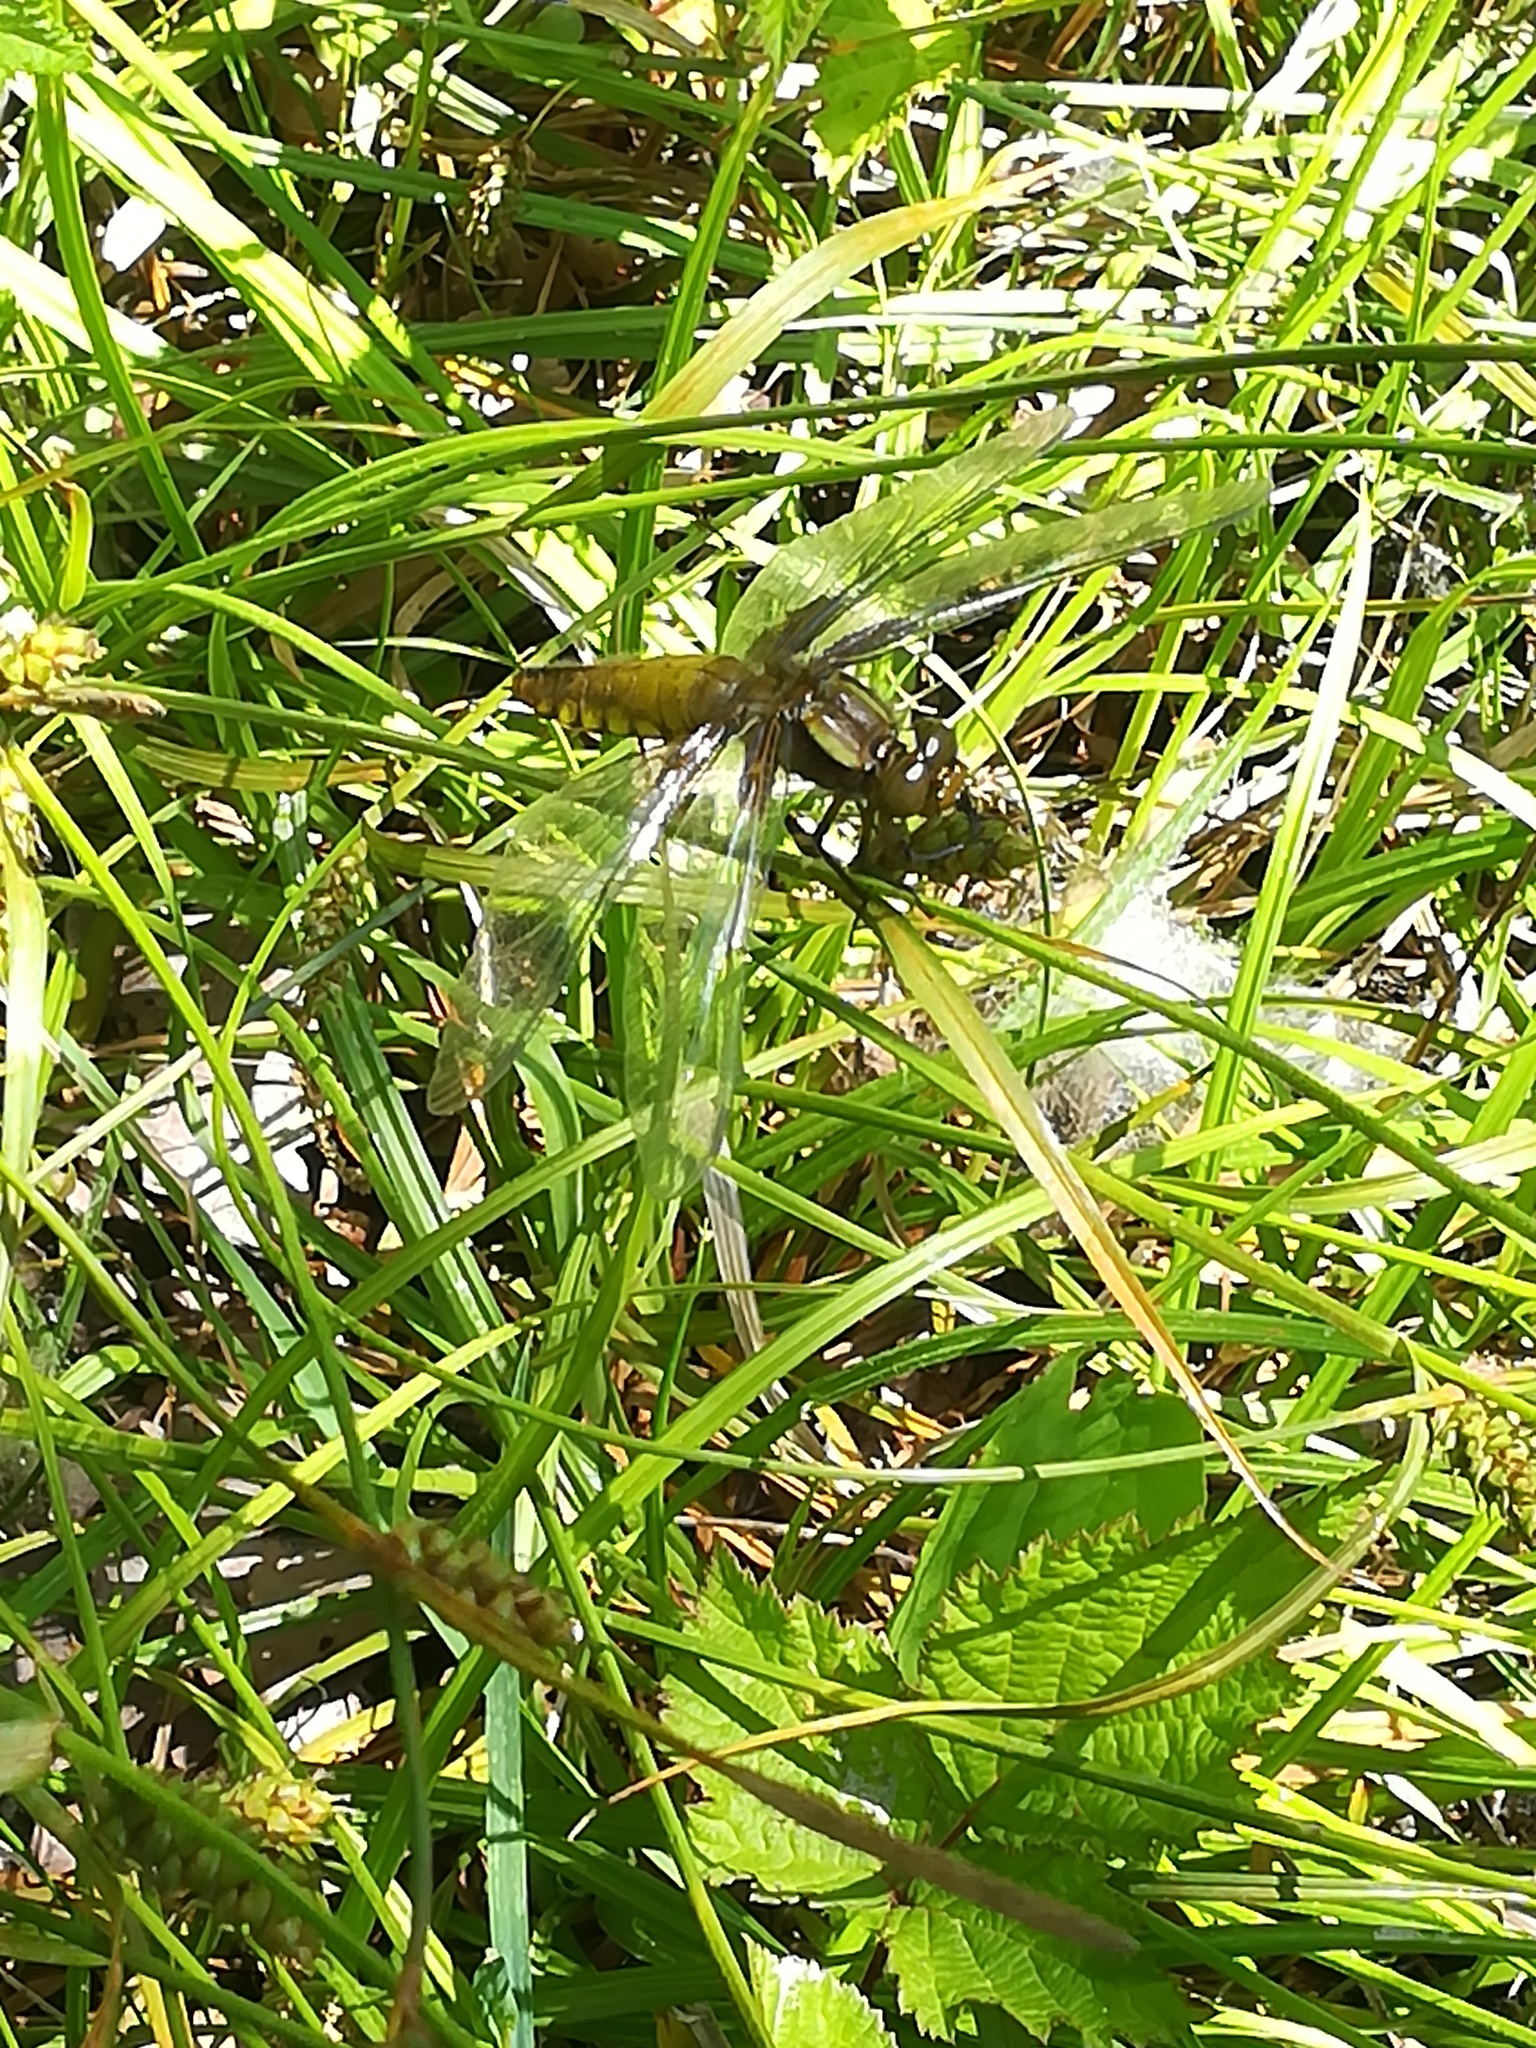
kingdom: Animalia
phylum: Arthropoda
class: Insecta
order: Odonata
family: Libellulidae
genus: Libellula
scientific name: Libellula depressa
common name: Broad-bodied chaser
